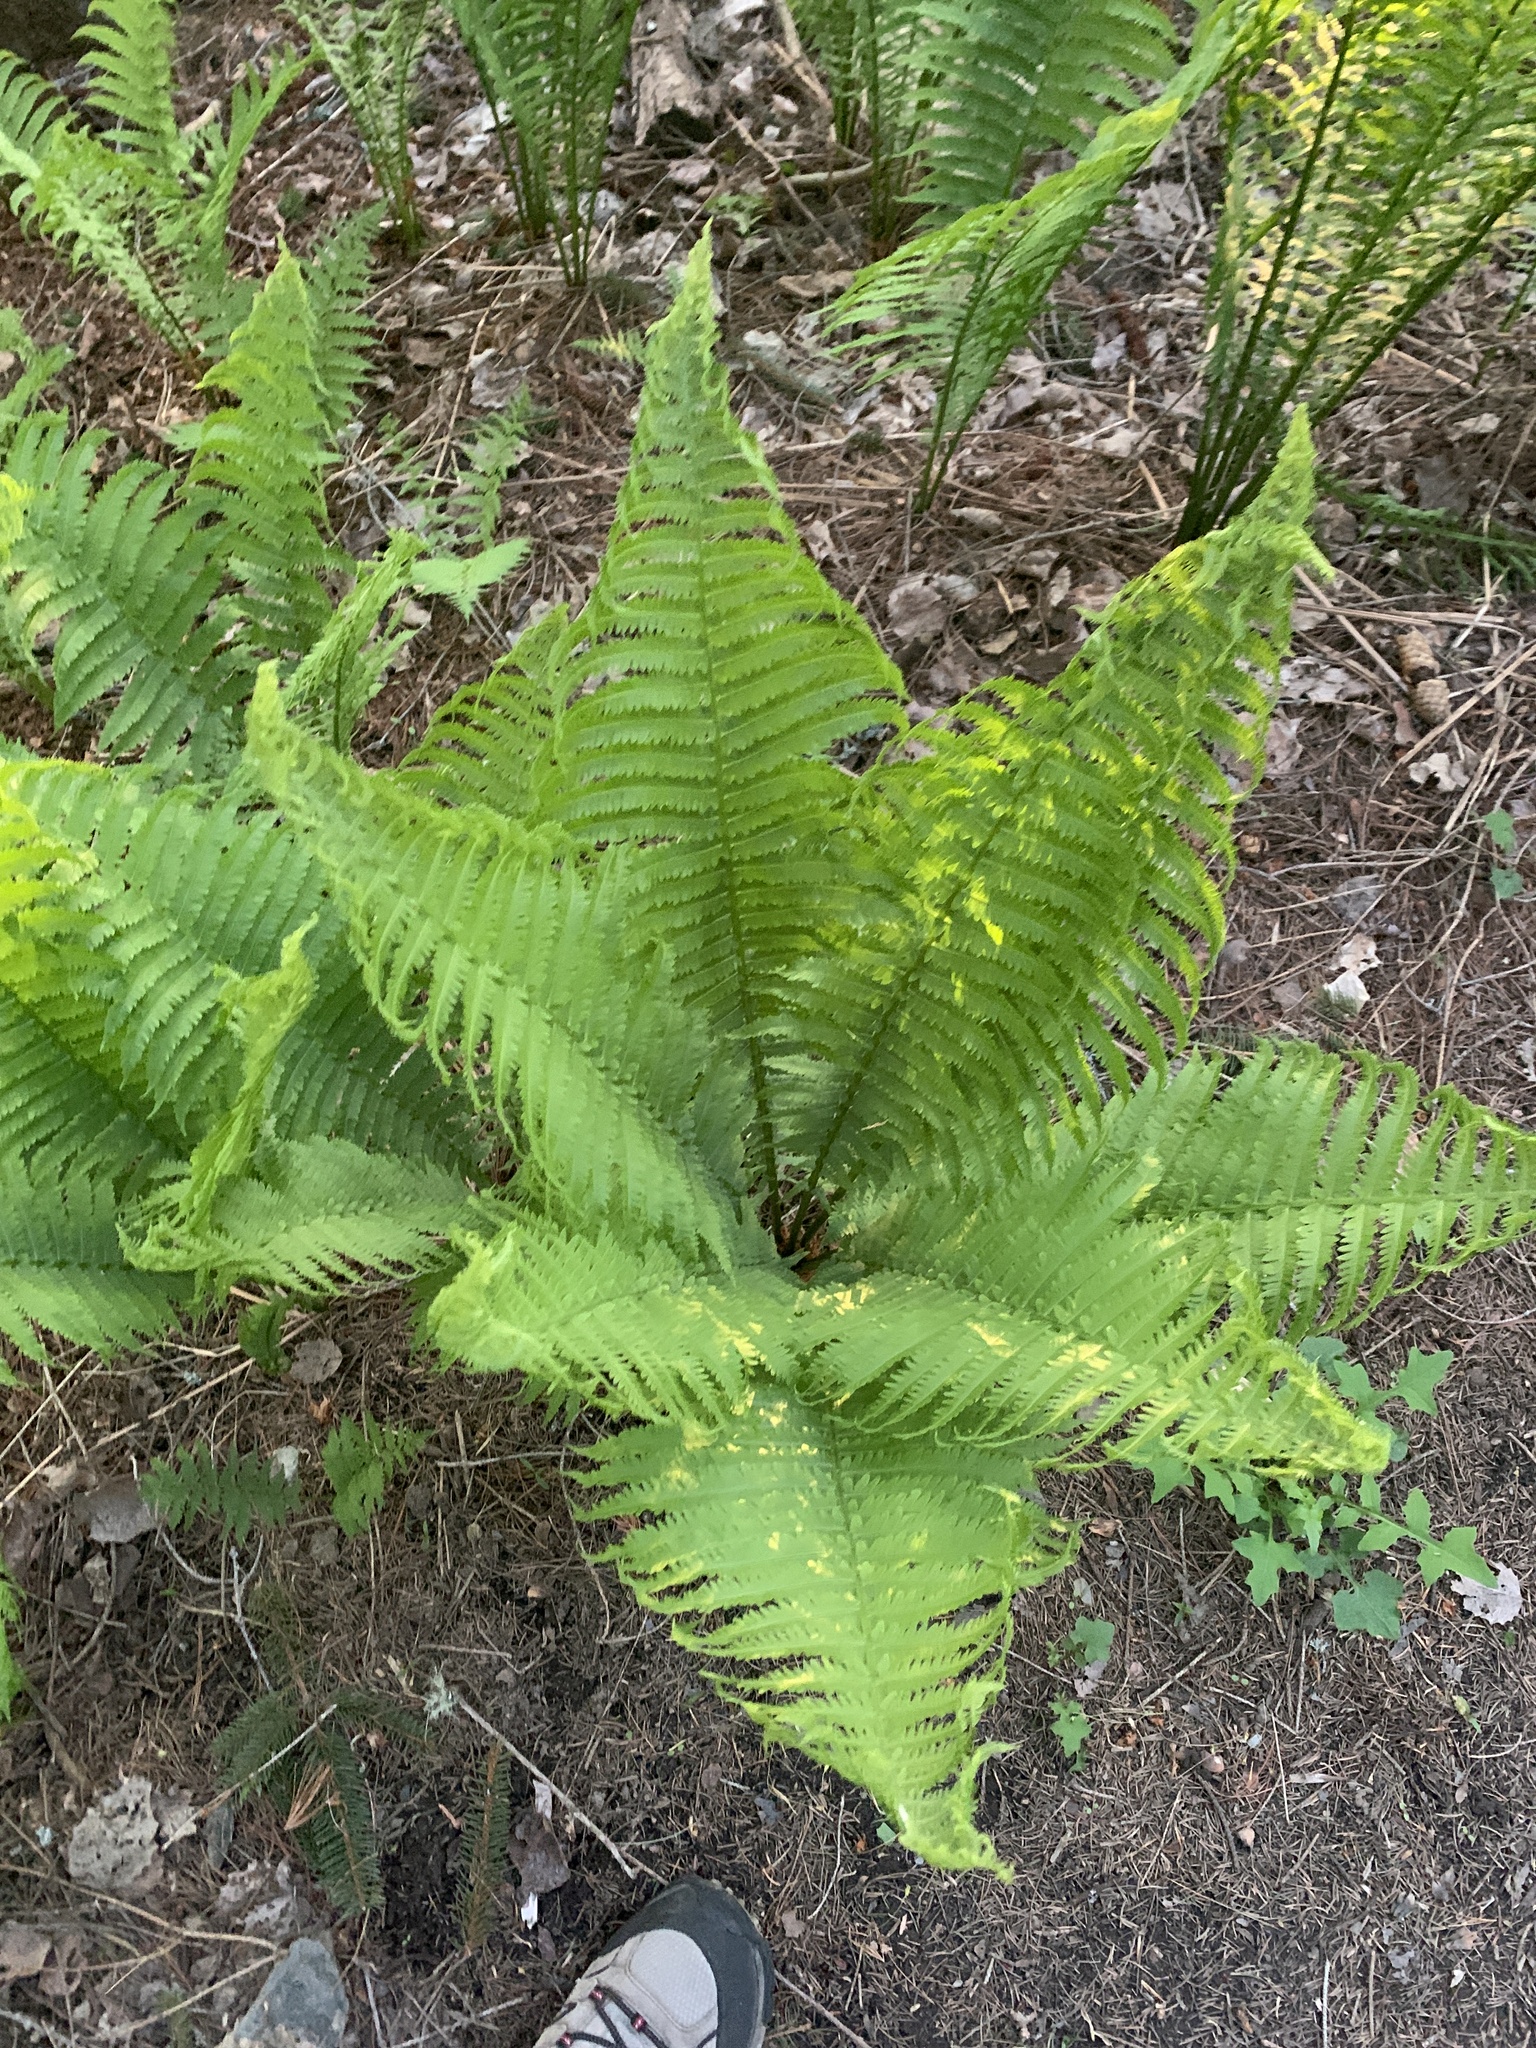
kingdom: Plantae
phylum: Tracheophyta
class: Polypodiopsida
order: Polypodiales
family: Onocleaceae
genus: Matteuccia
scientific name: Matteuccia struthiopteris
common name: Ostrich fern
